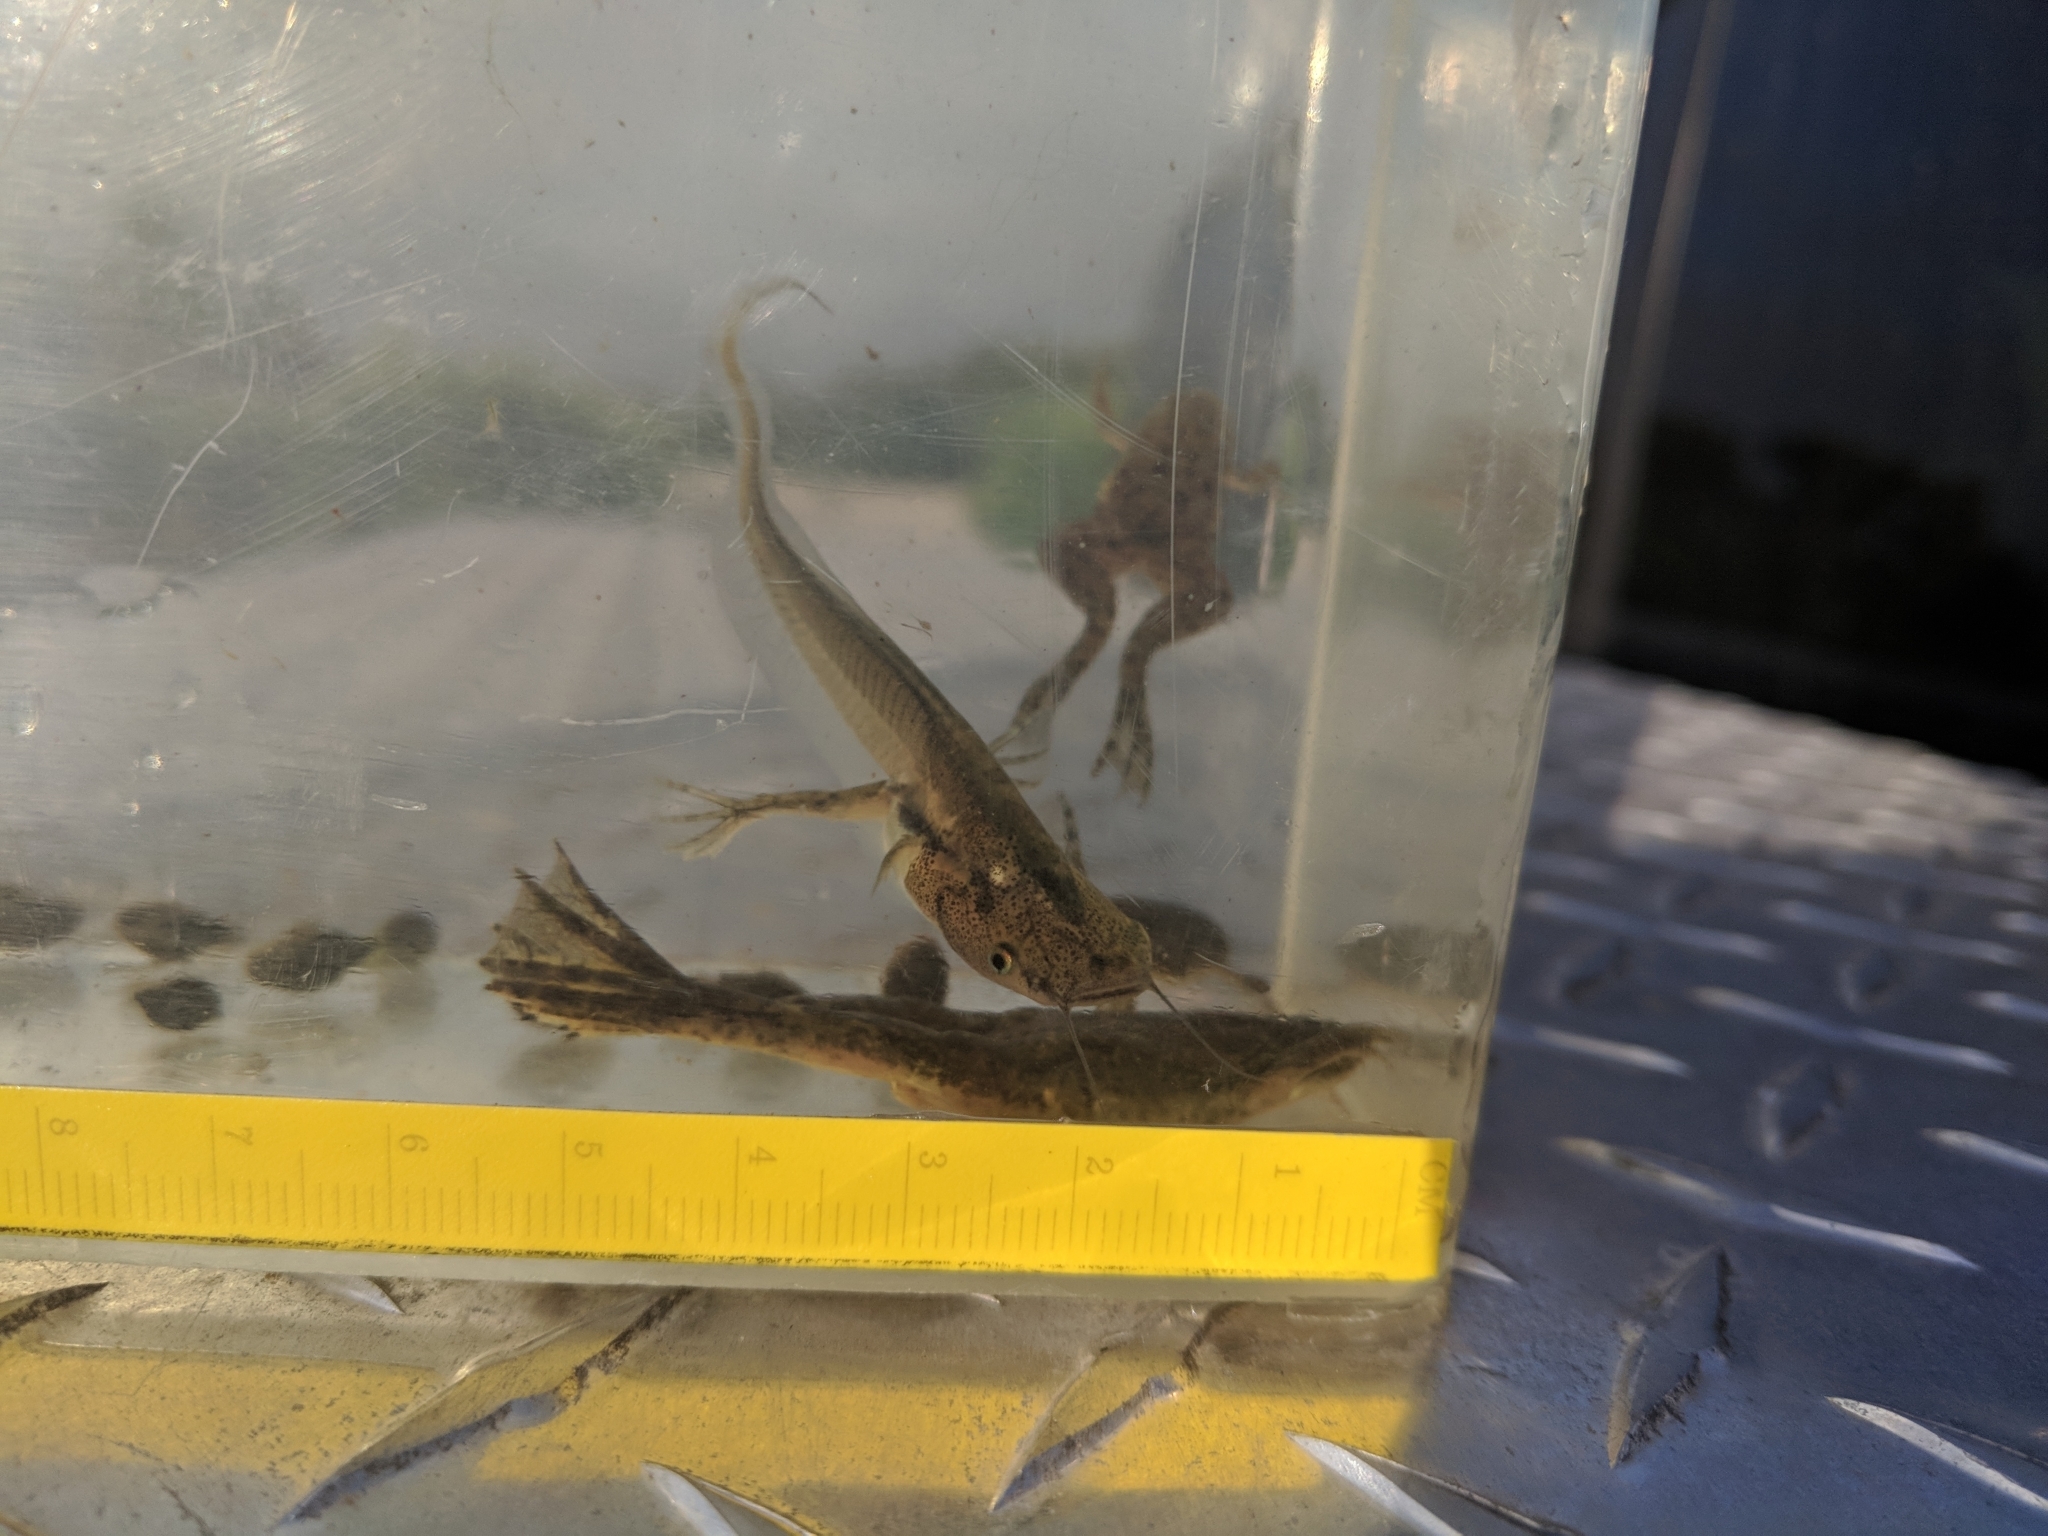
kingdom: Animalia
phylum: Chordata
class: Amphibia
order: Anura
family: Pipidae
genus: Xenopus
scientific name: Xenopus laevis
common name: African clawed frog
